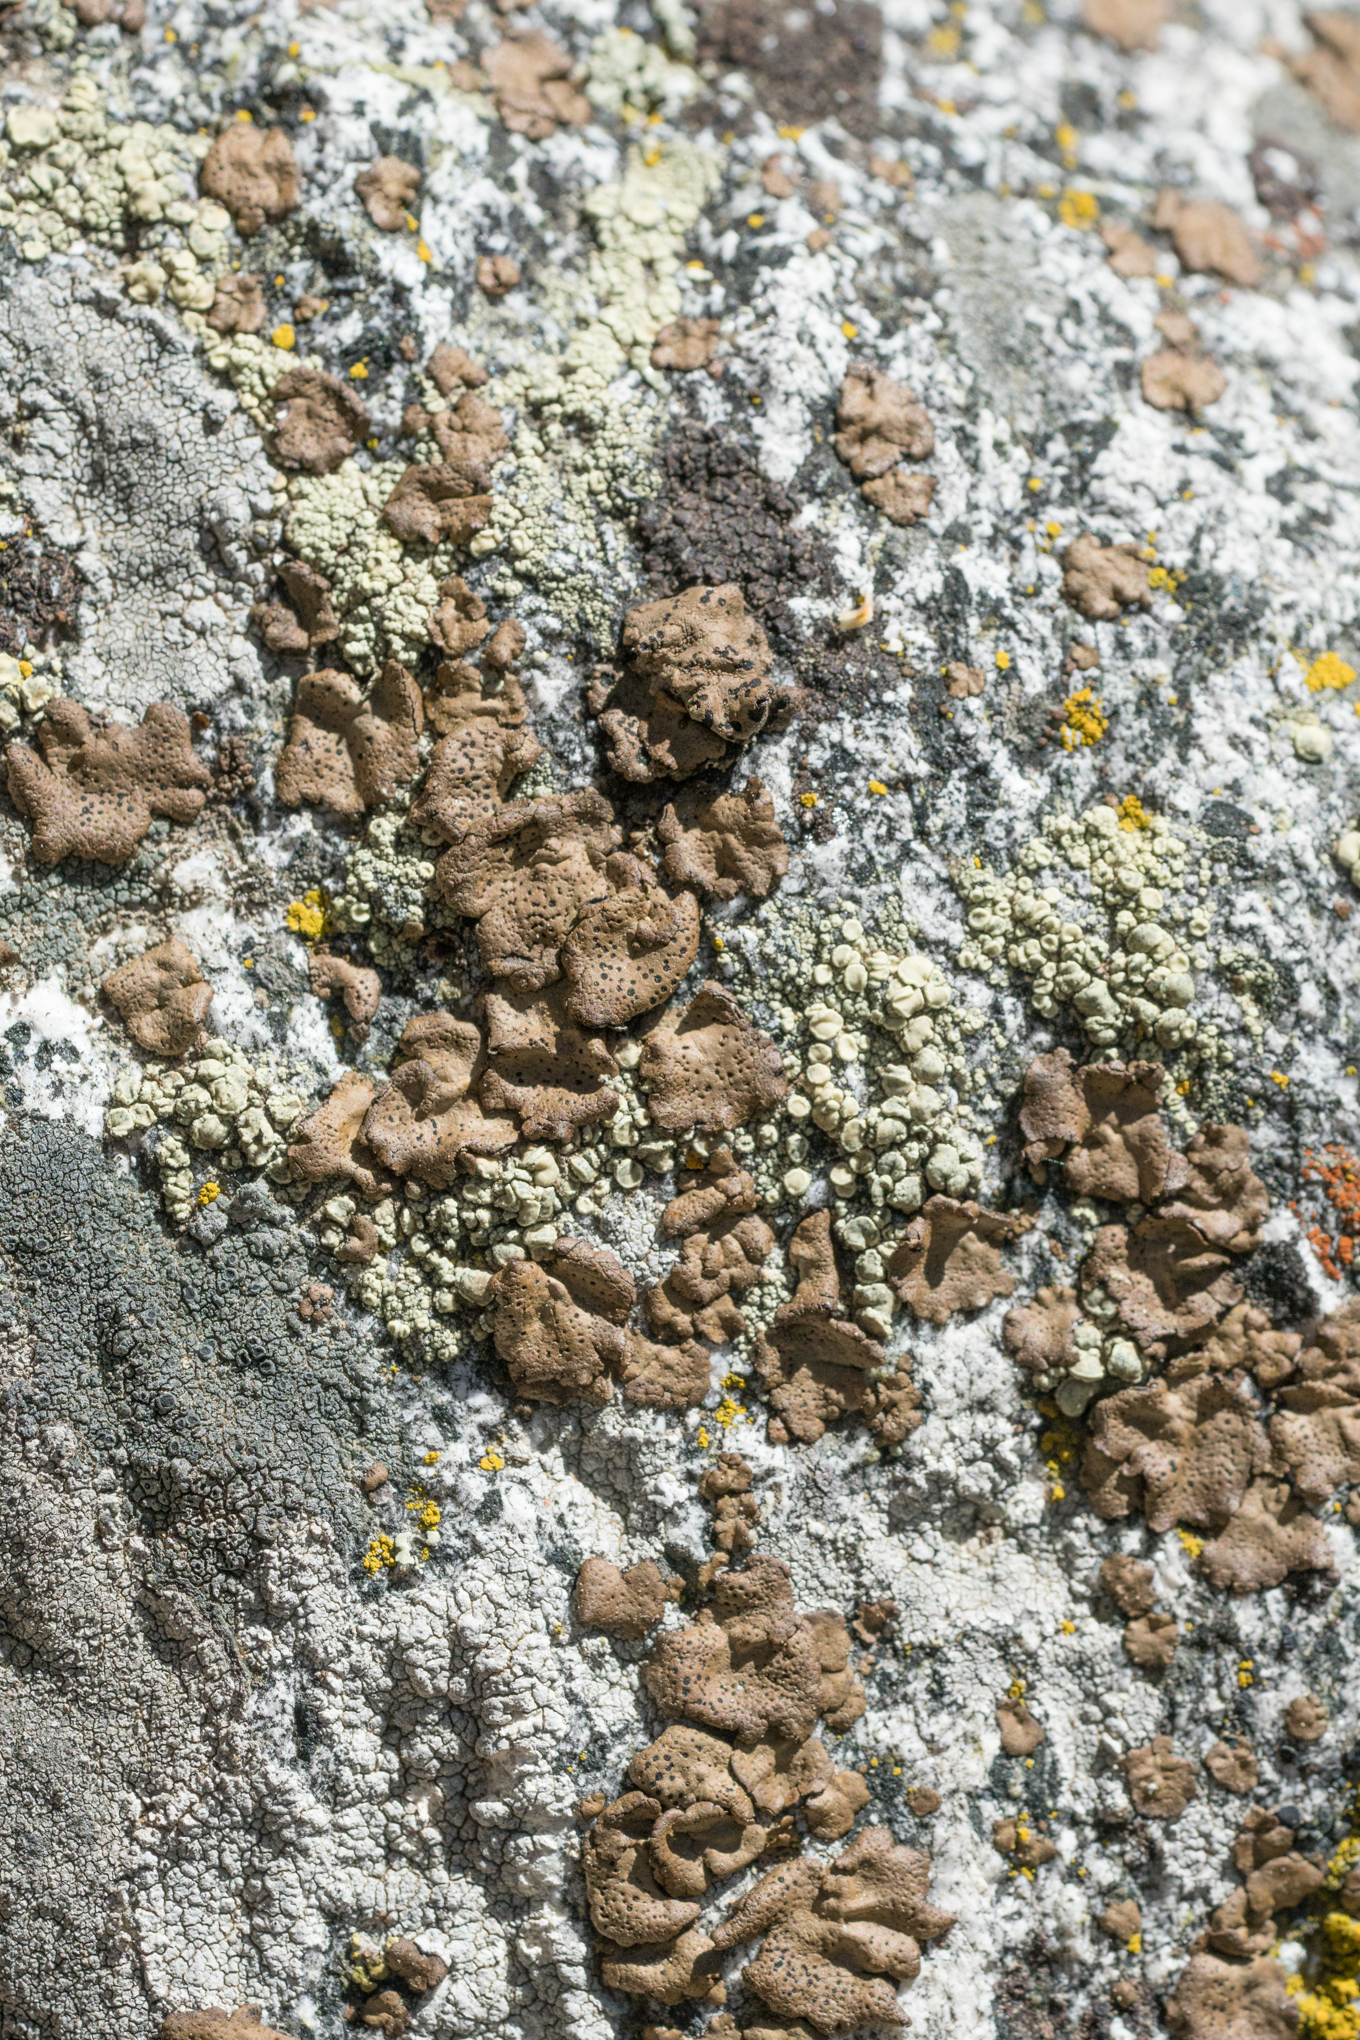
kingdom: Fungi
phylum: Ascomycota
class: Lecanoromycetes
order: Umbilicariales
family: Umbilicariaceae
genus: Umbilicaria
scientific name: Umbilicaria phaea
